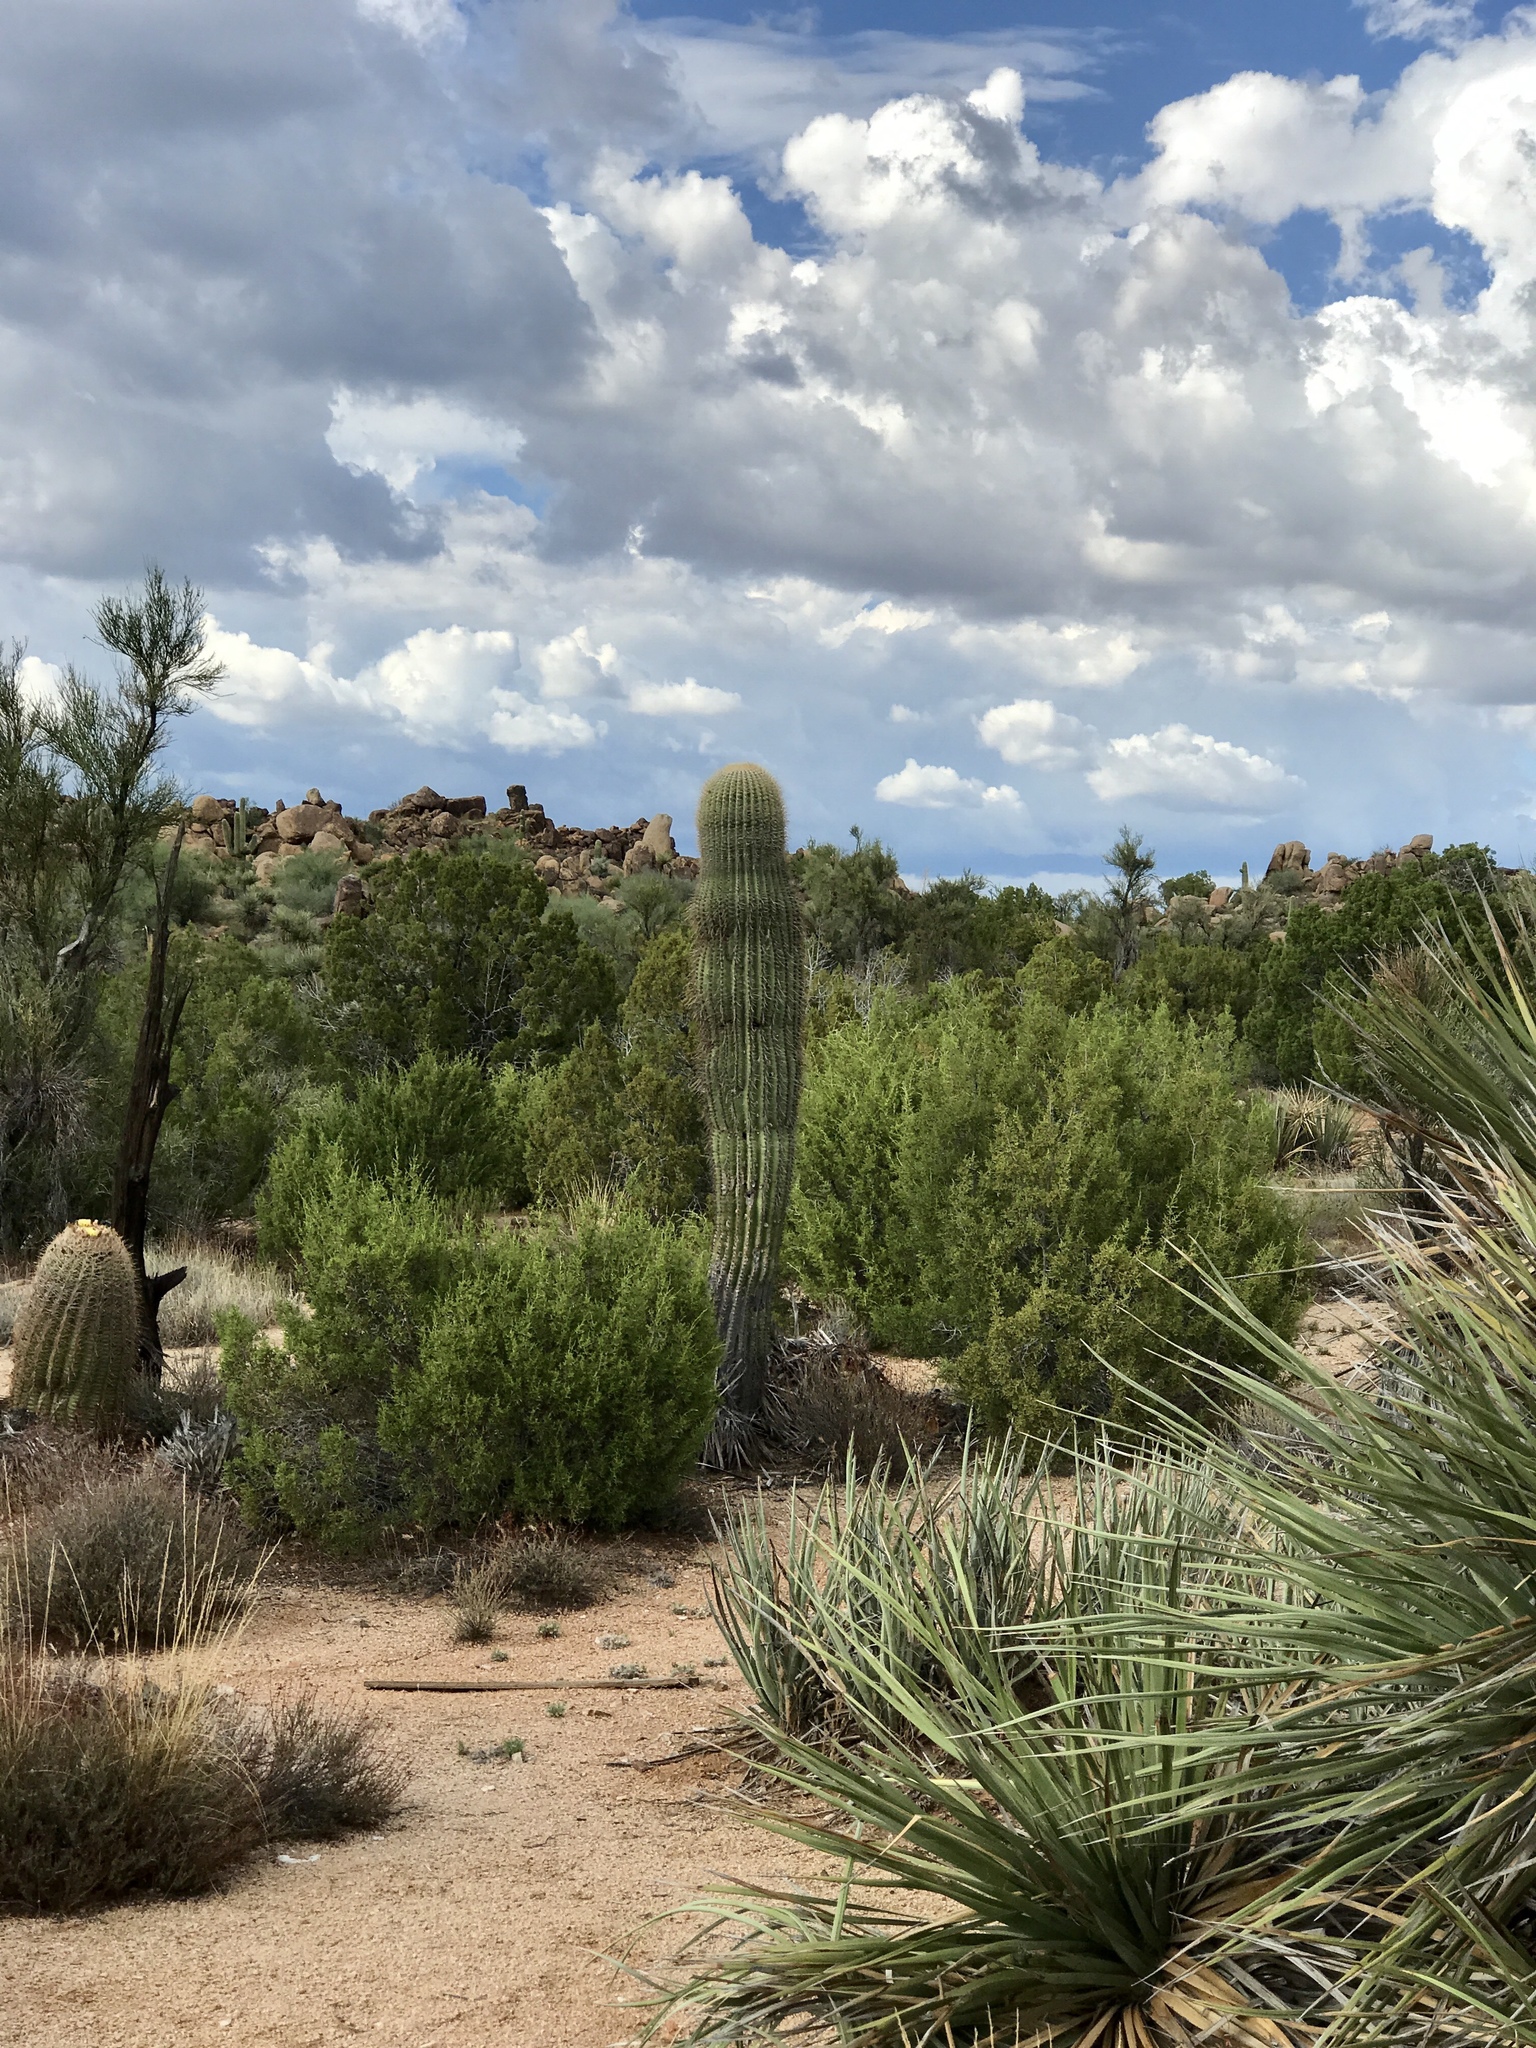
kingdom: Plantae
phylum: Tracheophyta
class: Magnoliopsida
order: Caryophyllales
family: Cactaceae
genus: Carnegiea
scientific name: Carnegiea gigantea
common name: Saguaro
